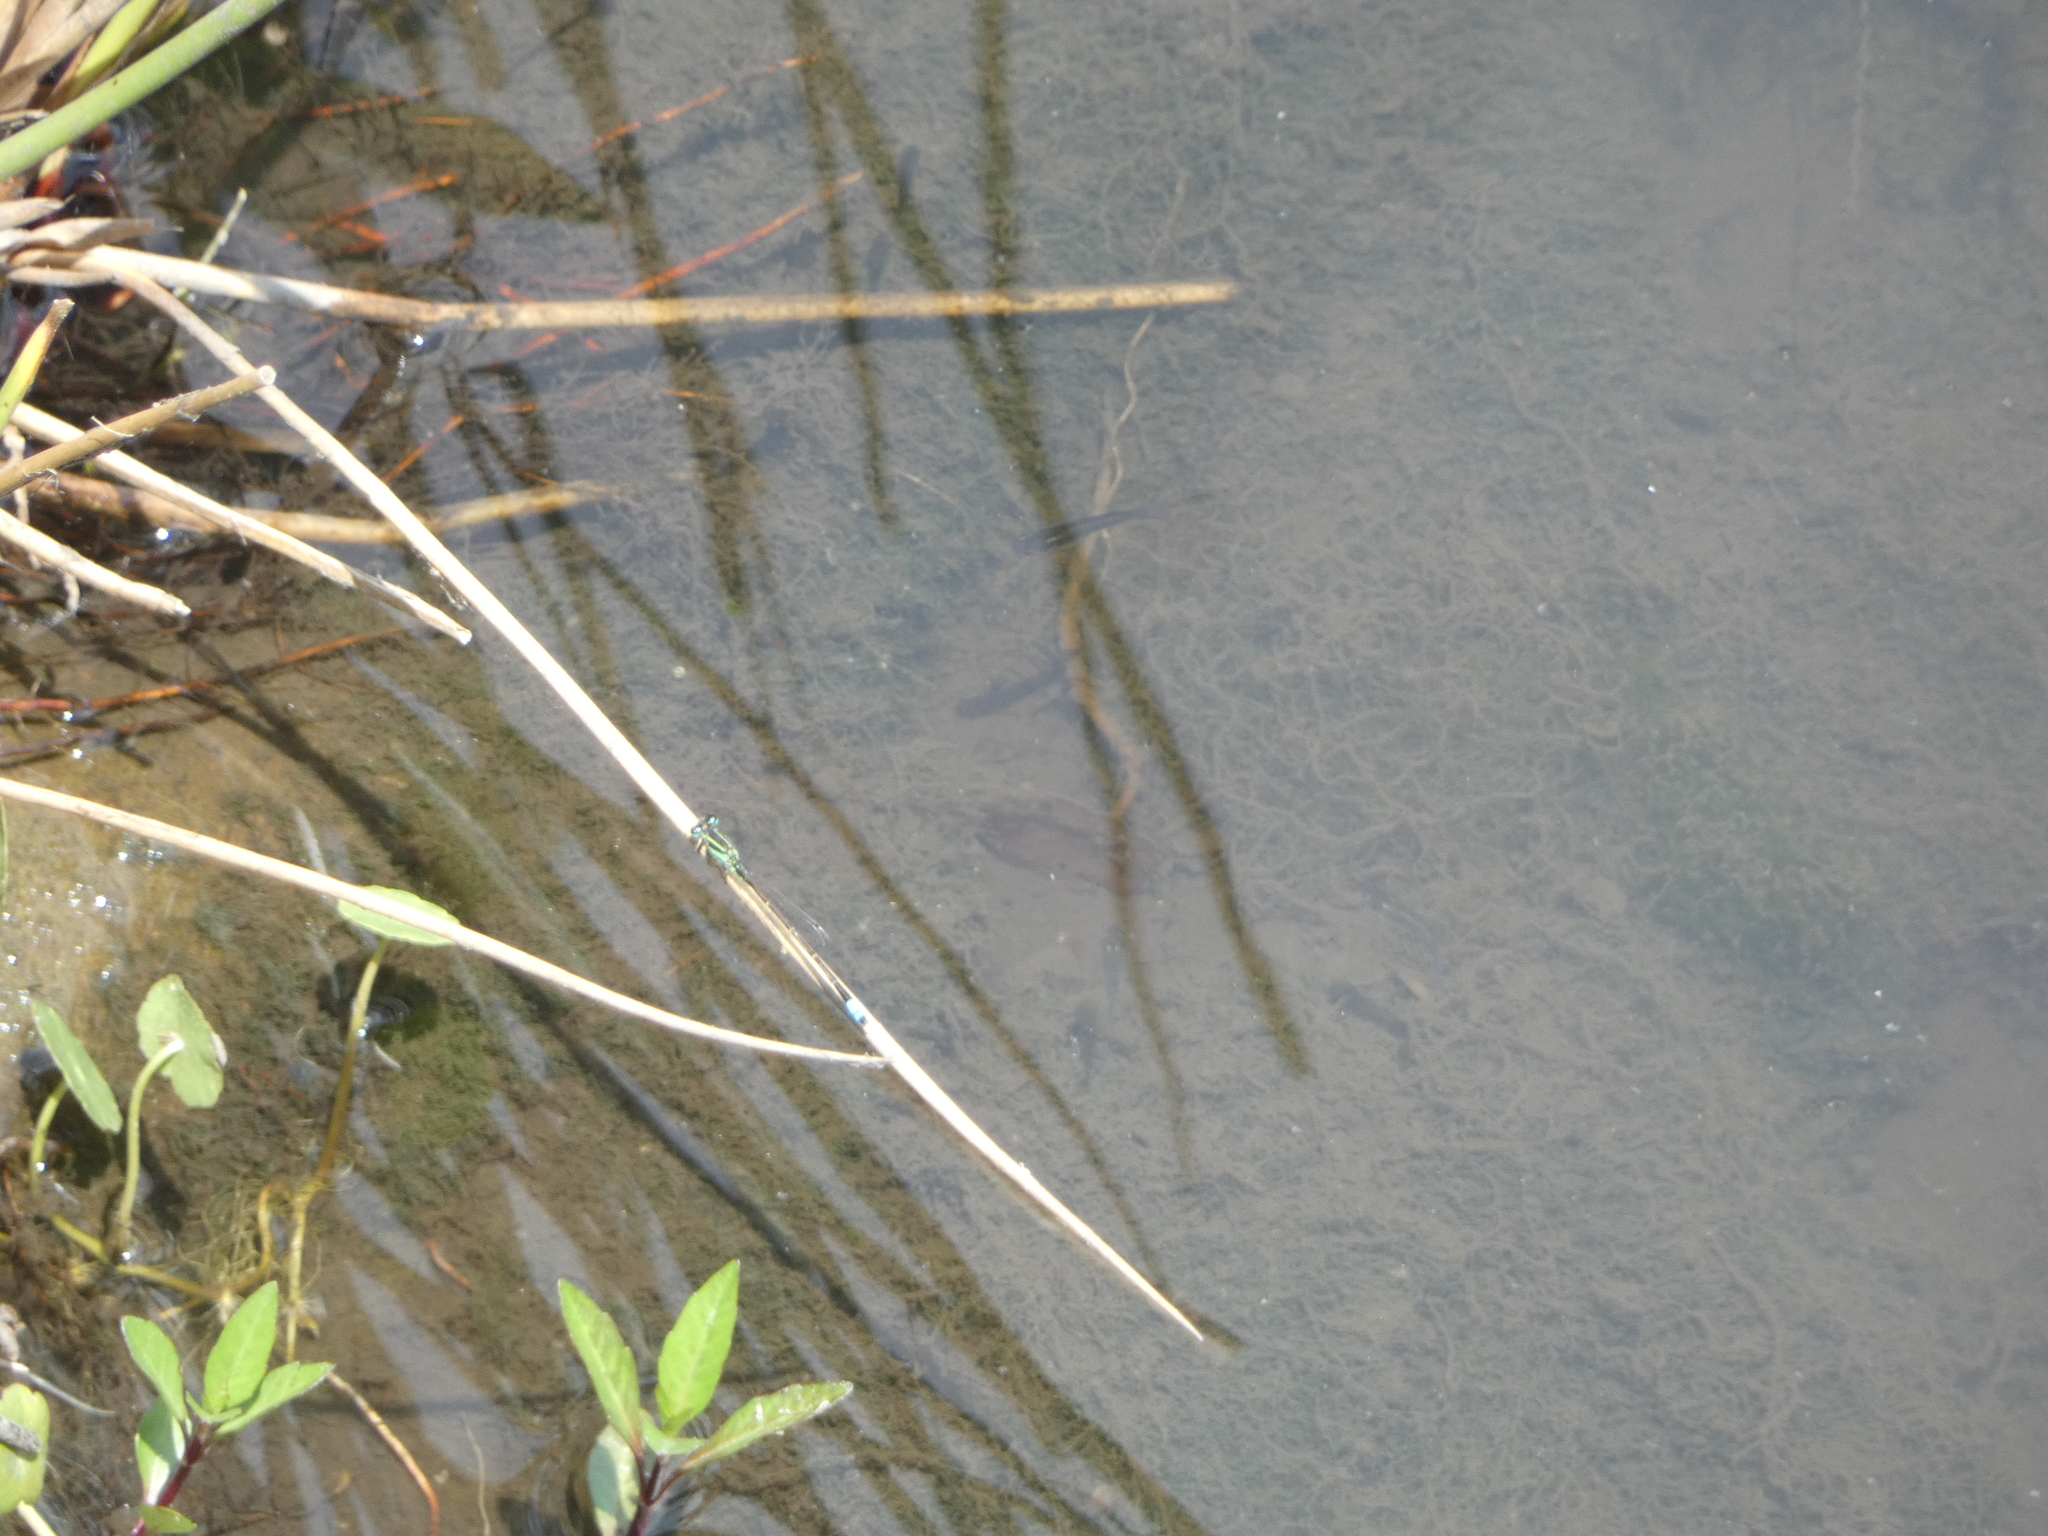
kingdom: Animalia
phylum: Arthropoda
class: Insecta
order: Odonata
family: Coenagrionidae
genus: Ischnura
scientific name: Ischnura ramburii
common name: Rambur's forktail
